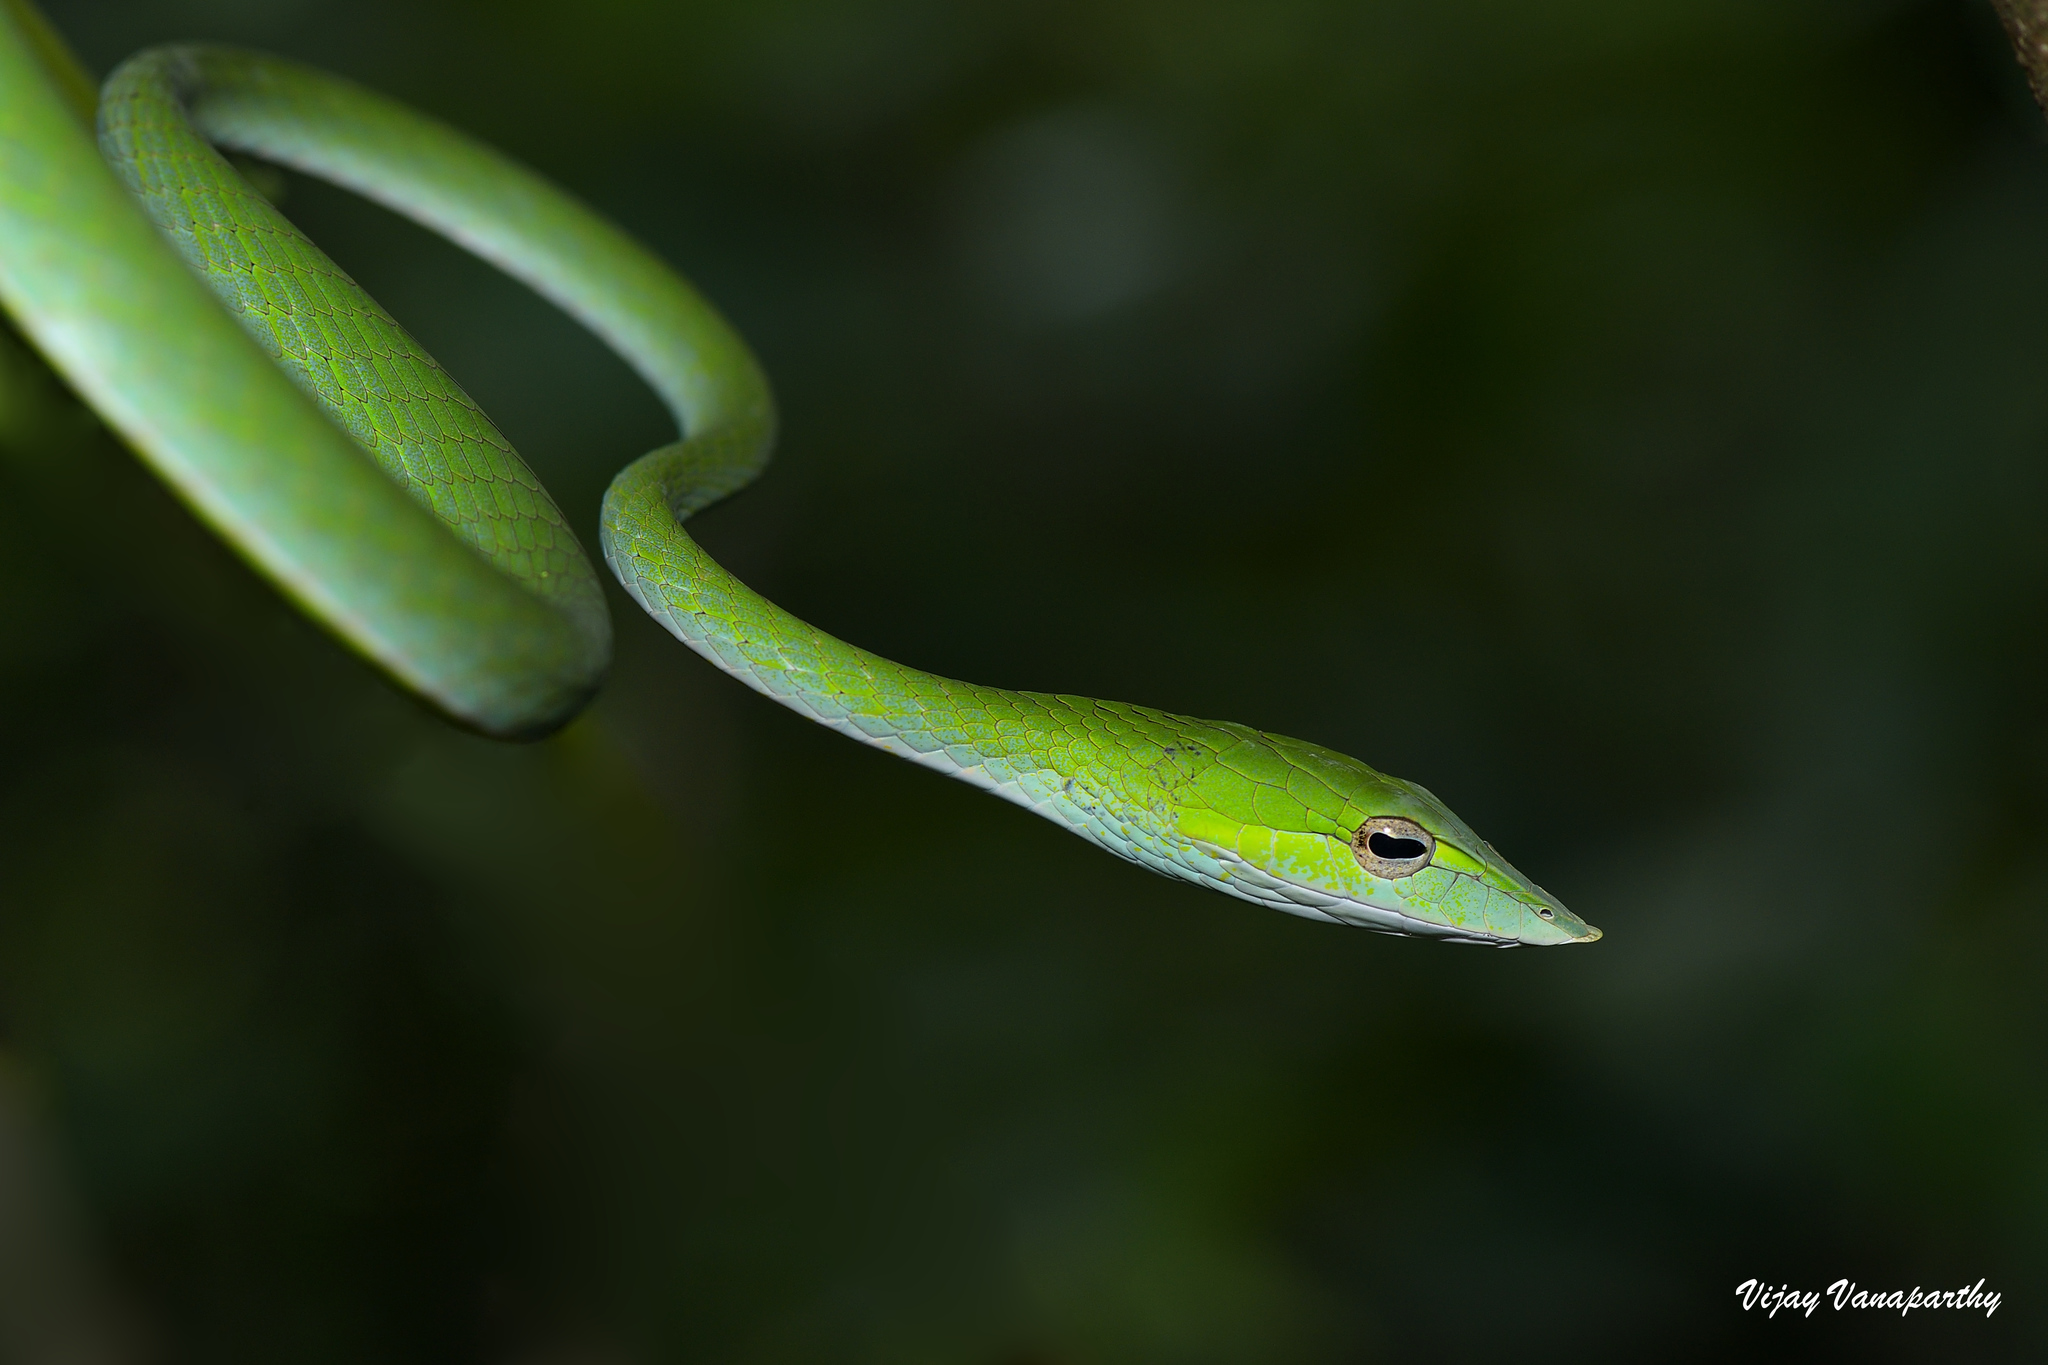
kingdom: Animalia
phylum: Chordata
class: Squamata
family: Colubridae
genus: Ahaetulla
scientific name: Ahaetulla farnsworthi
